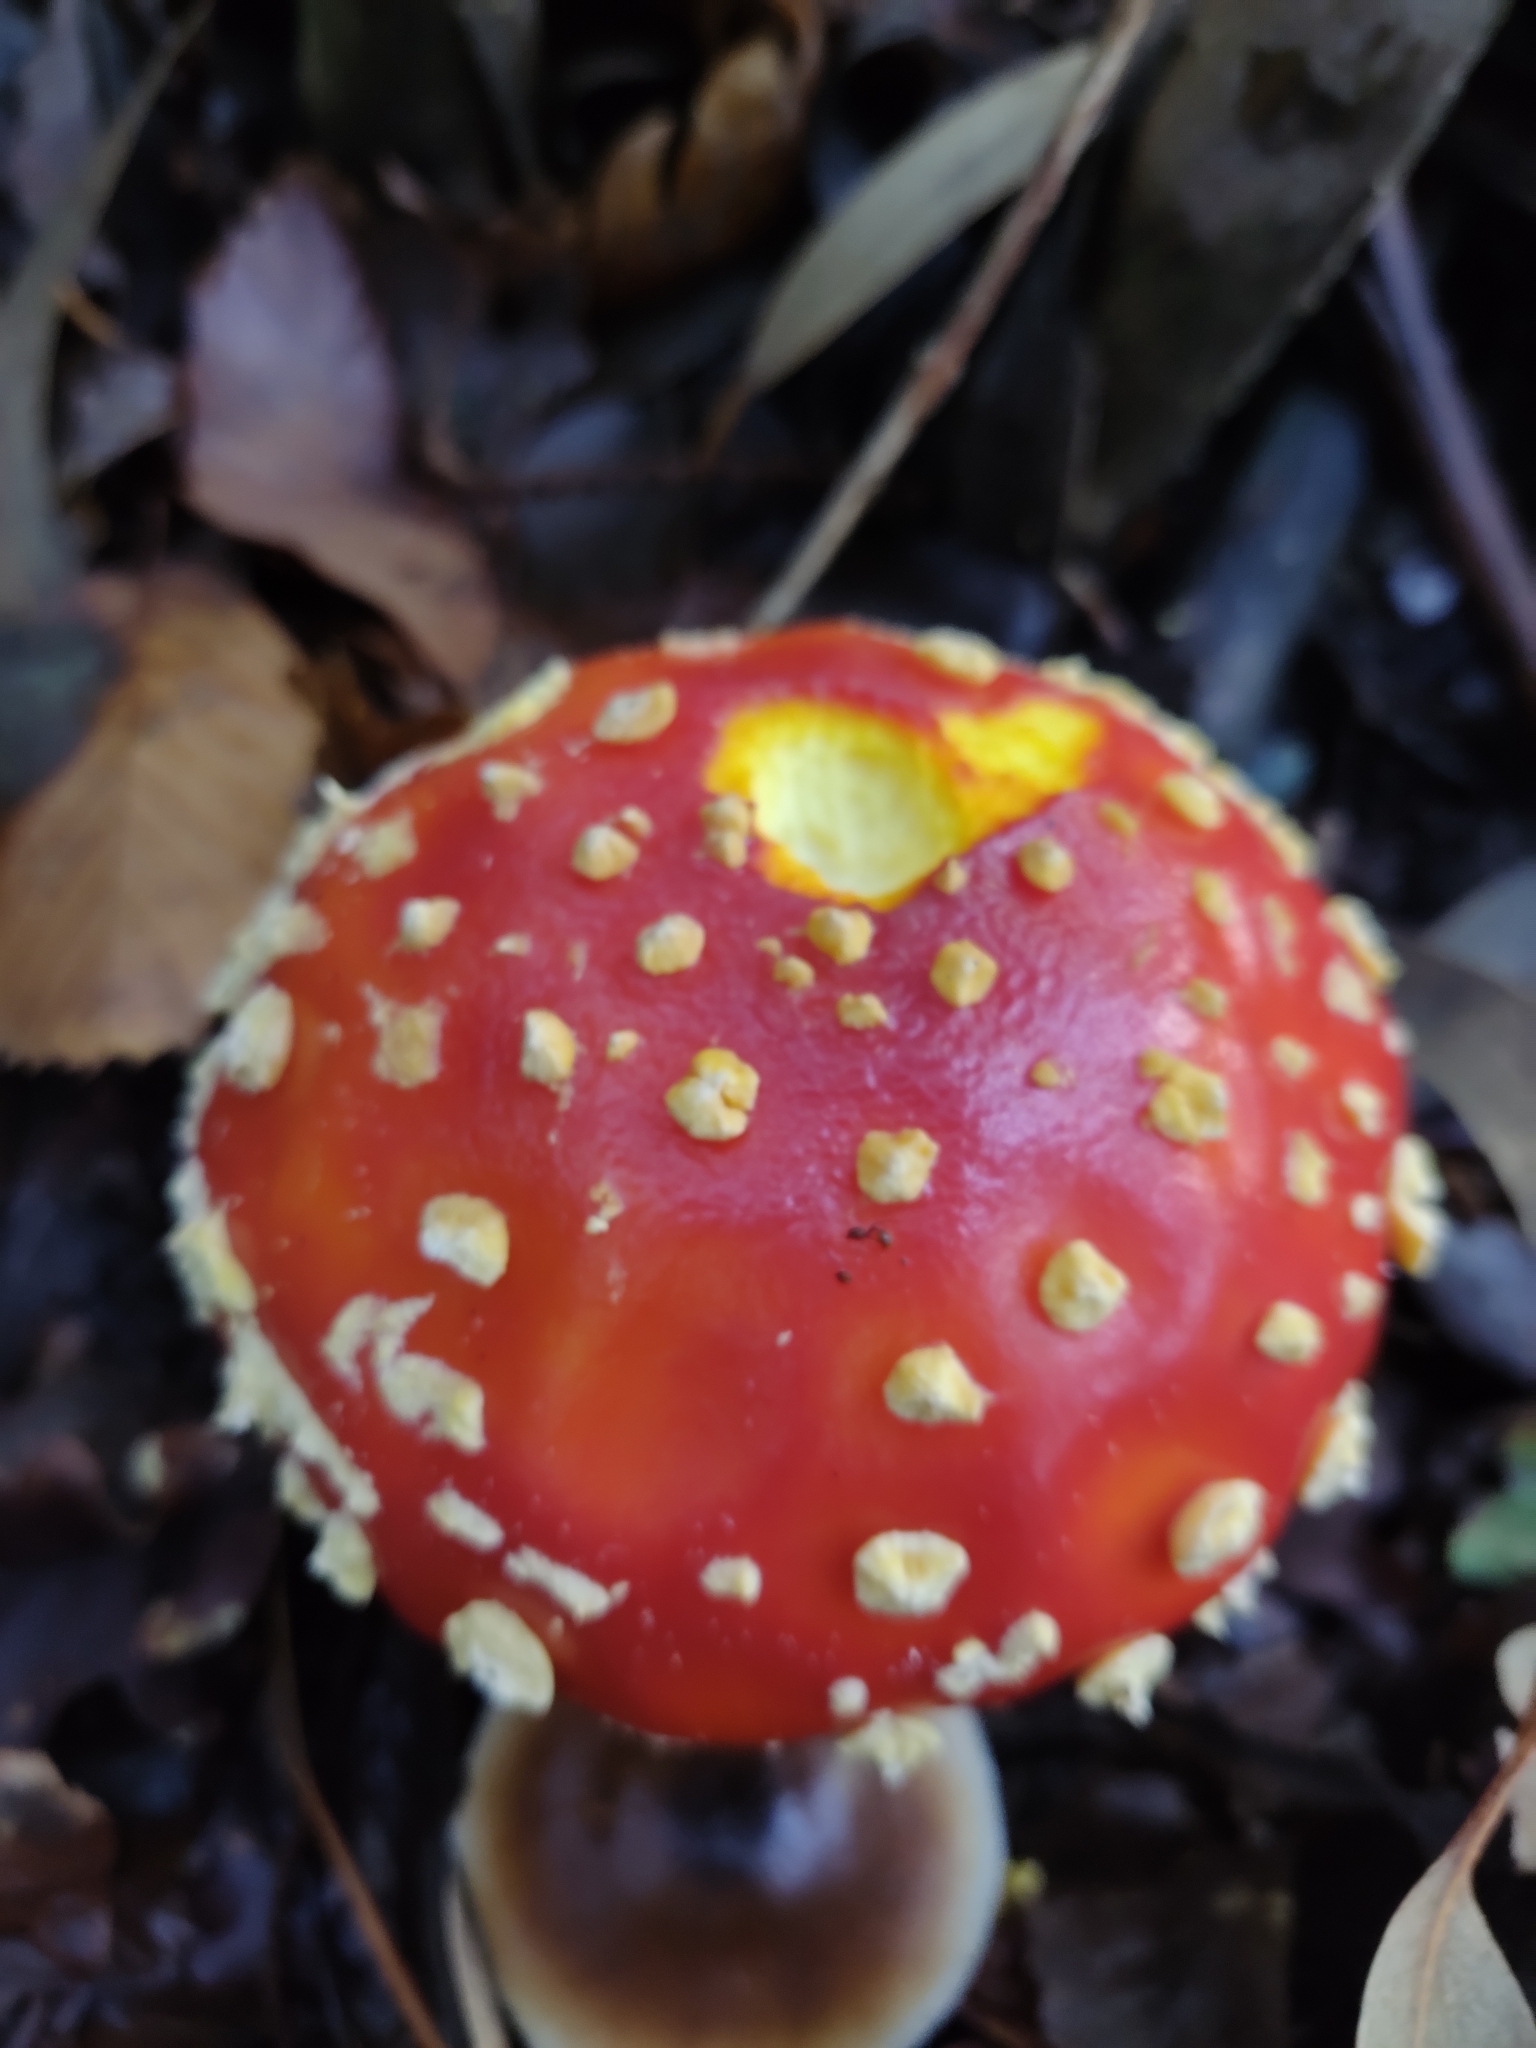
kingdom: Fungi
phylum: Basidiomycota
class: Agaricomycetes
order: Agaricales
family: Amanitaceae
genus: Amanita
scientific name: Amanita muscaria
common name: Fly agaric
